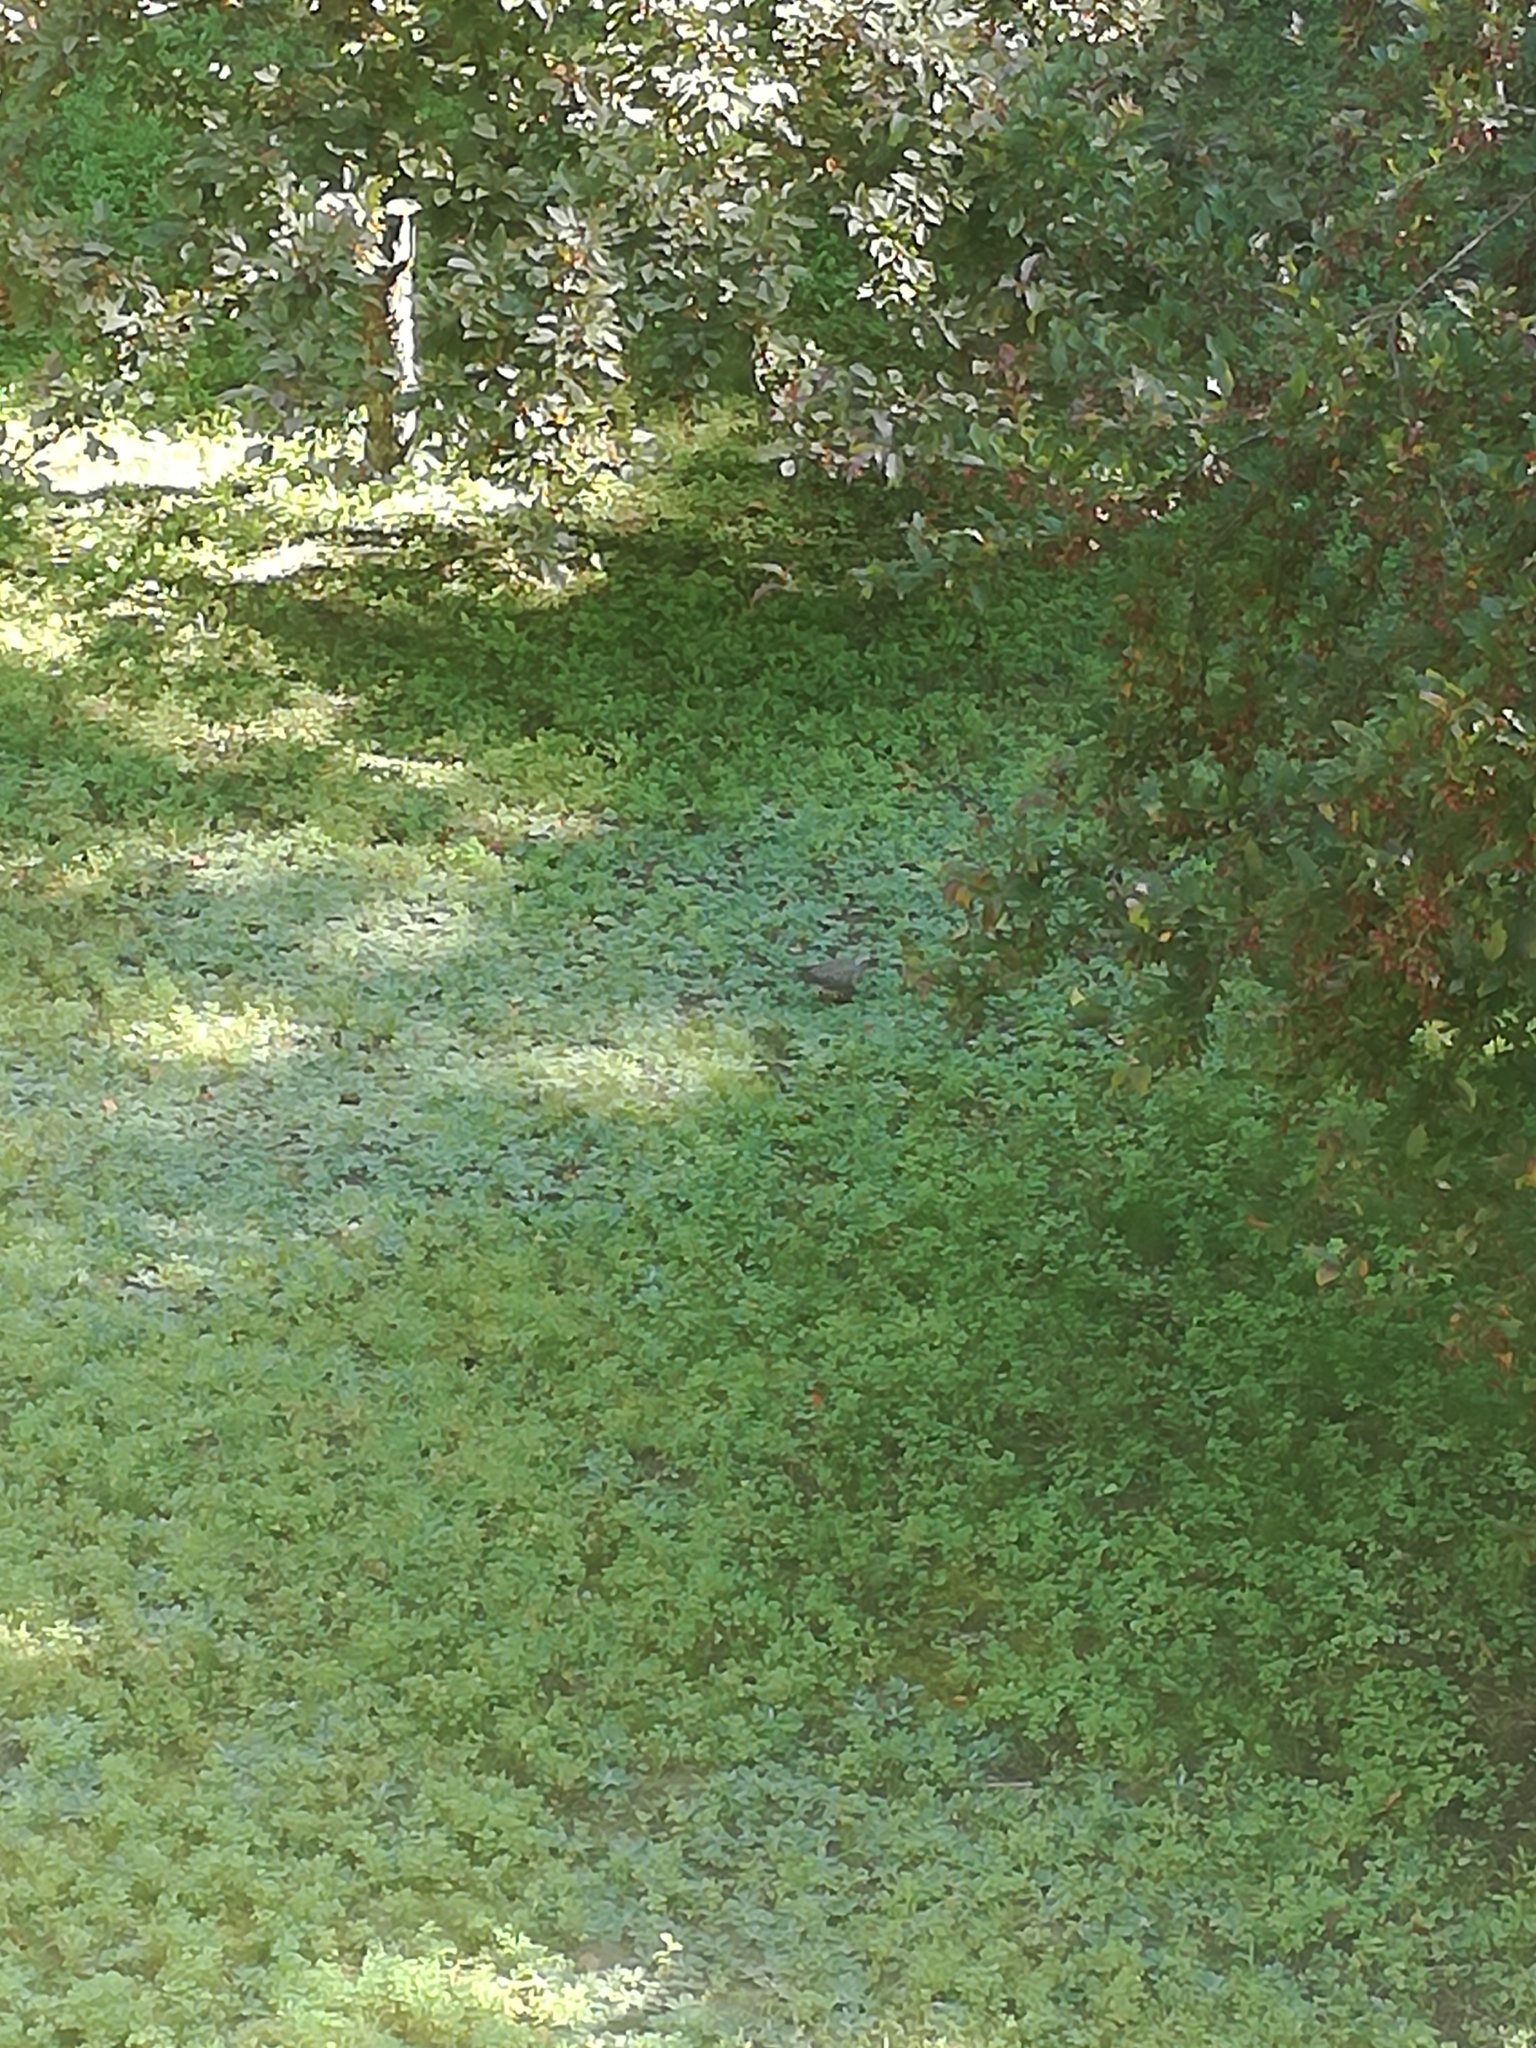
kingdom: Animalia
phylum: Chordata
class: Aves
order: Columbiformes
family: Columbidae
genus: Zenaida
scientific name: Zenaida macroura
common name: Mourning dove
